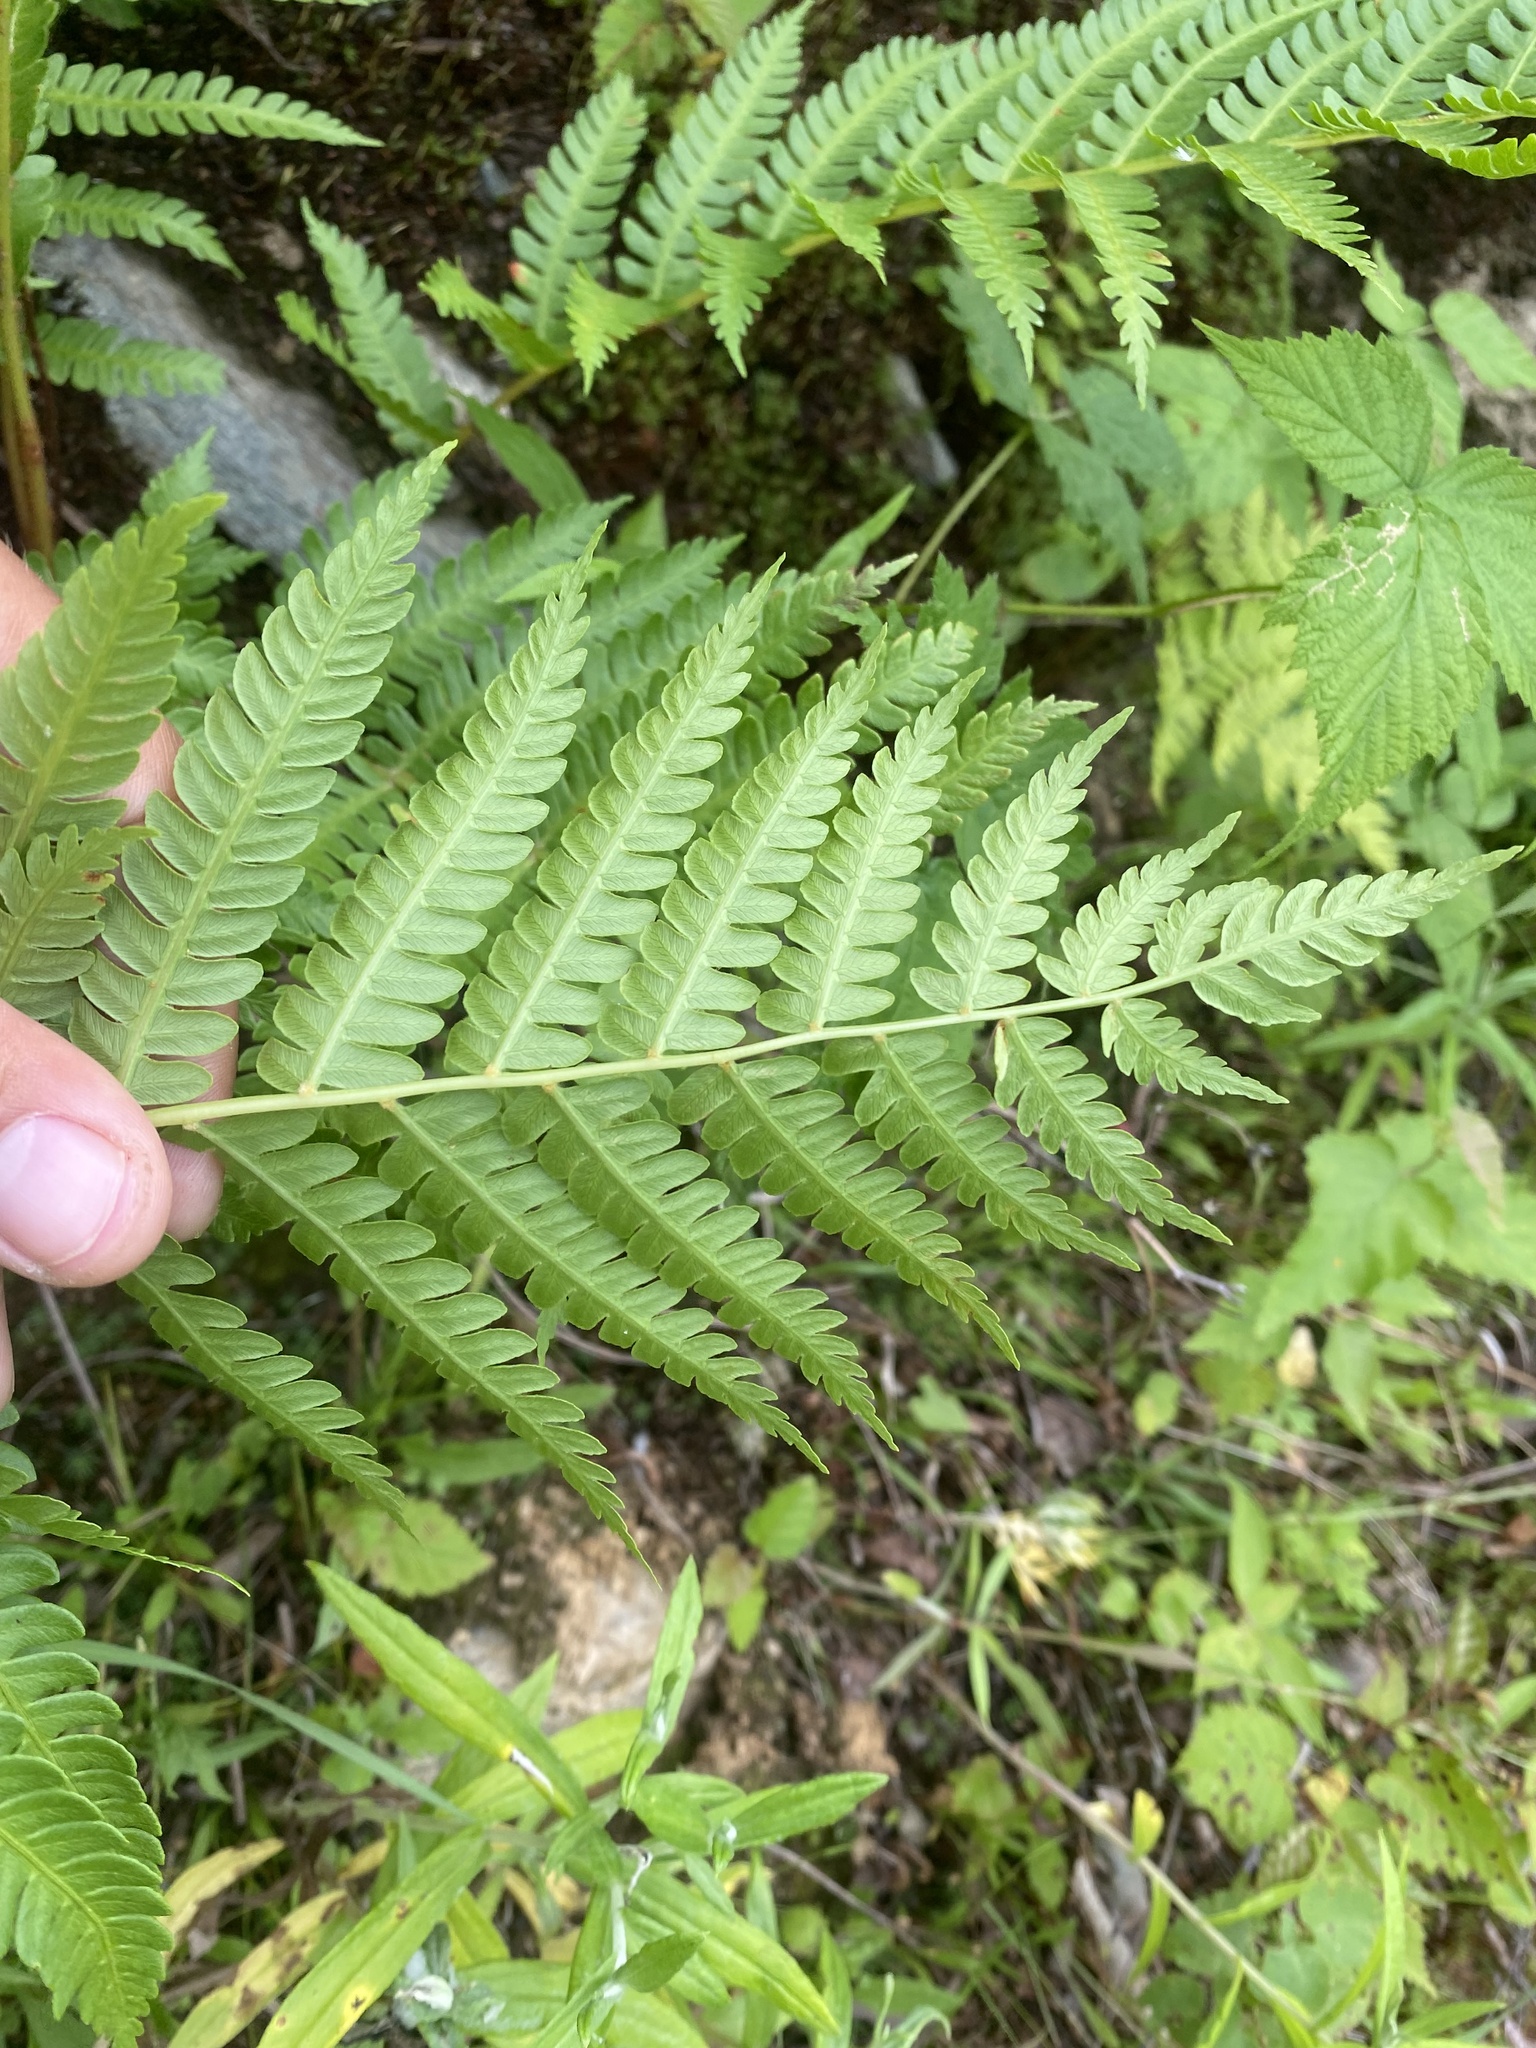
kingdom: Plantae
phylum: Tracheophyta
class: Polypodiopsida
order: Osmundales
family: Osmundaceae
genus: Osmundastrum
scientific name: Osmundastrum cinnamomeum
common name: Cinnamon fern
